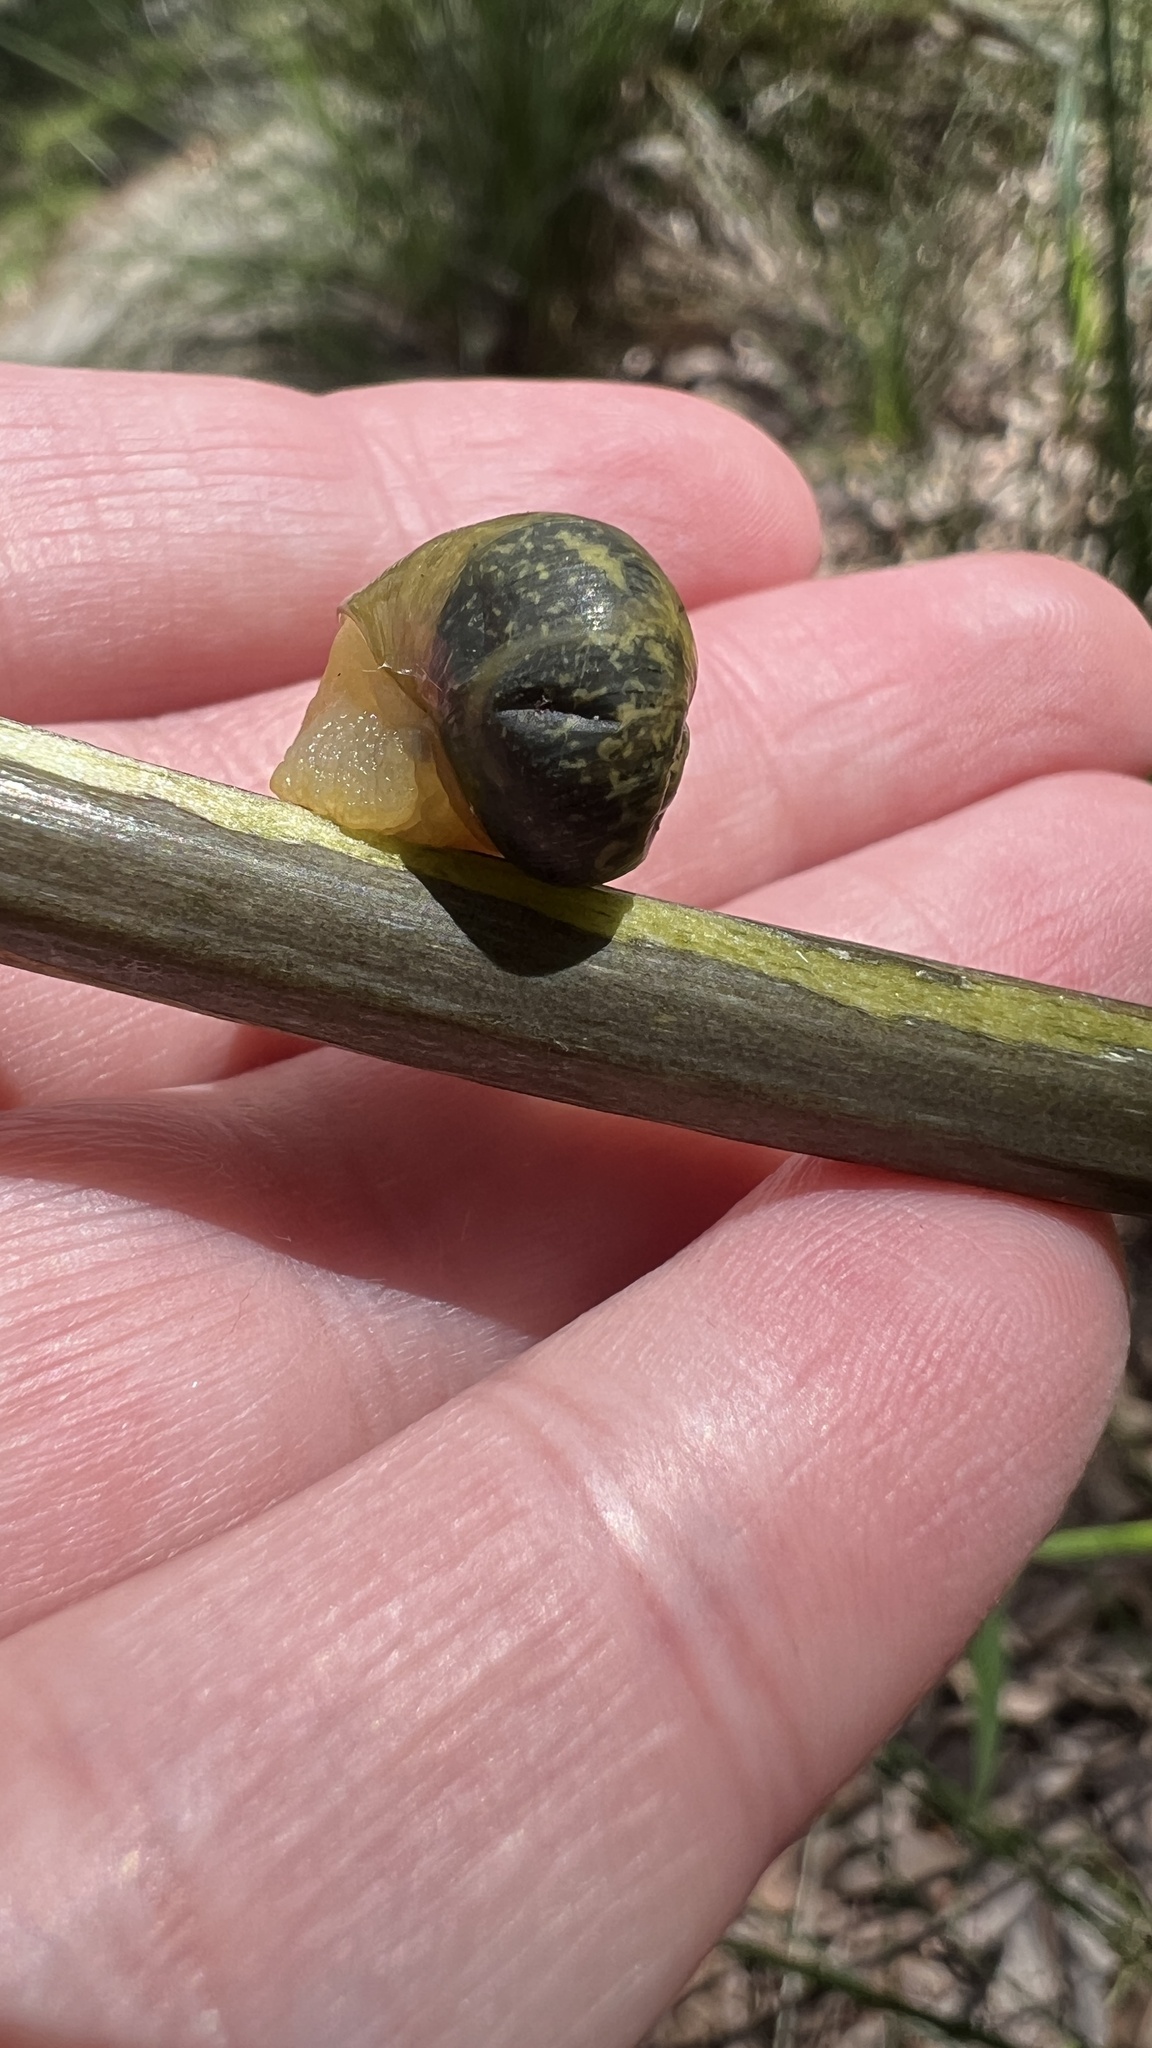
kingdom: Animalia
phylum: Mollusca
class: Gastropoda
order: Stylommatophora
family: Helicidae
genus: Cantareus
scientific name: Cantareus apertus
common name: Green gardensnail
